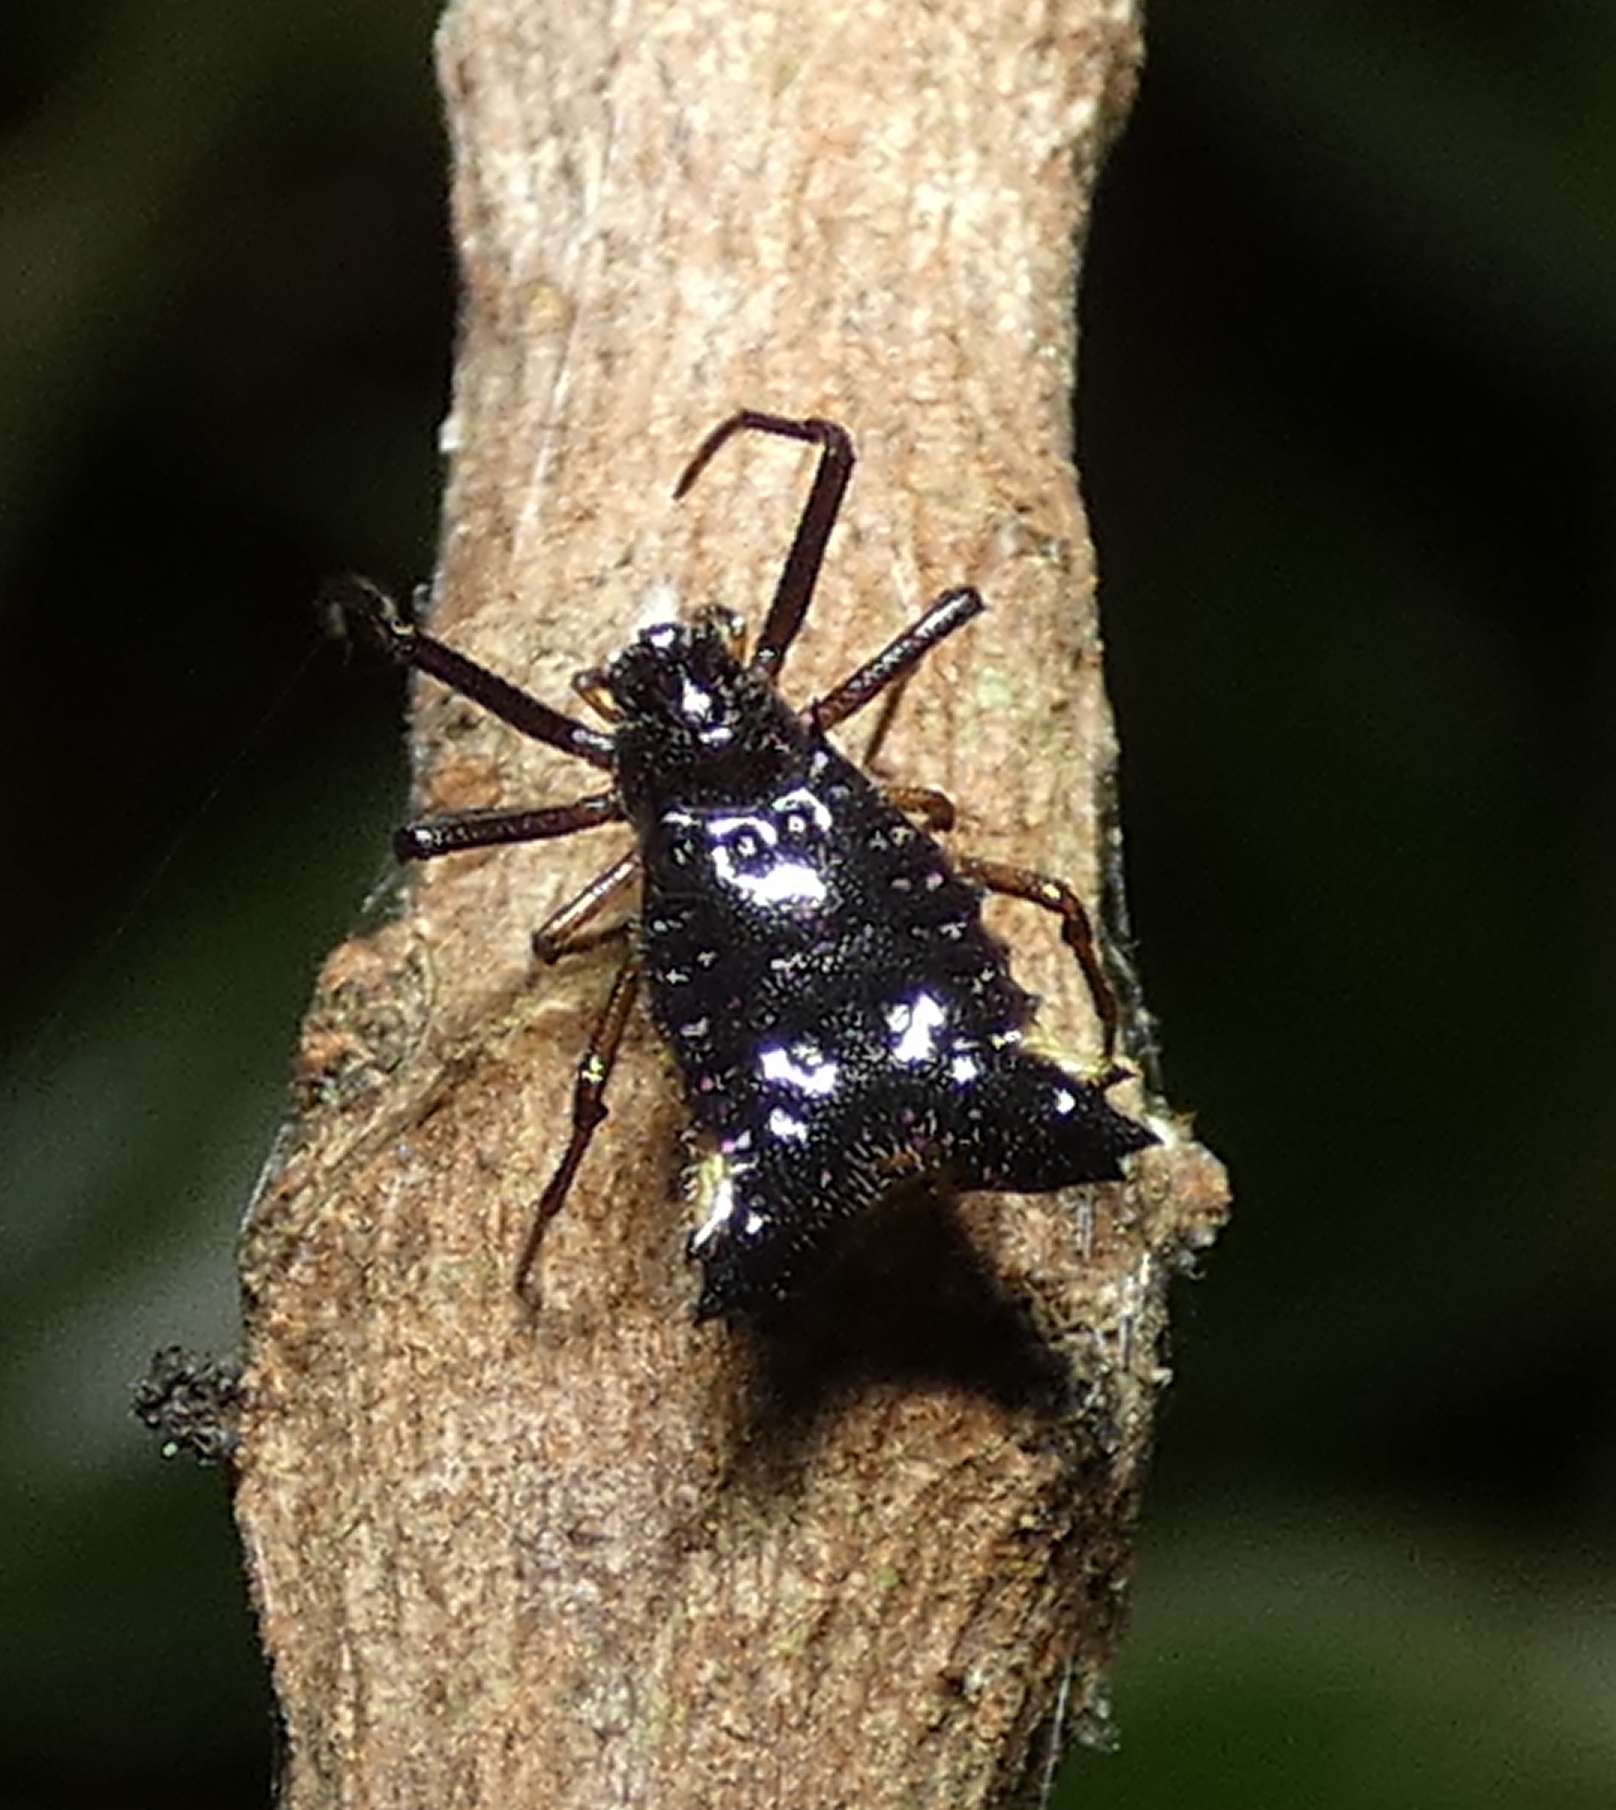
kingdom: Animalia
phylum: Arthropoda
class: Arachnida
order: Araneae
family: Araneidae
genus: Micrathena
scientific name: Micrathena triangularis
